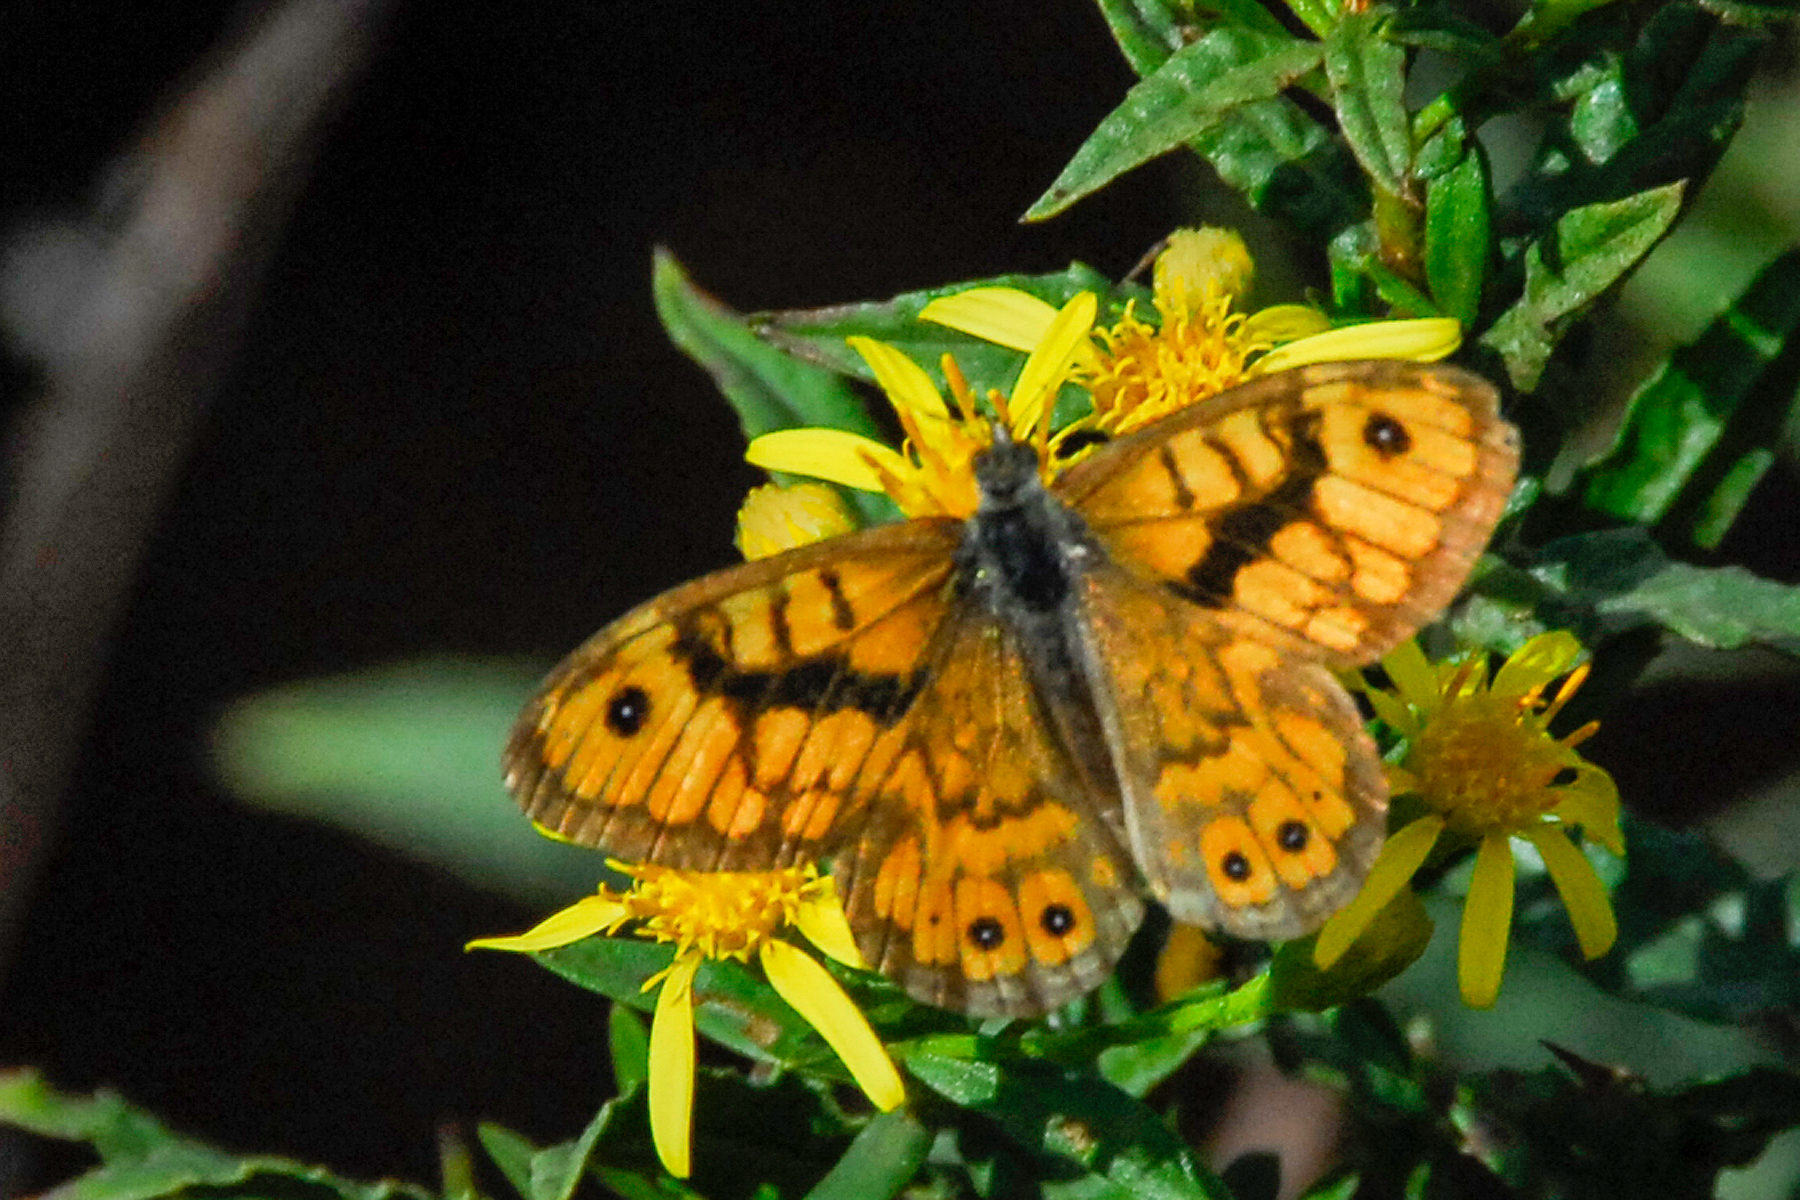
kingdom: Animalia
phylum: Arthropoda
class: Insecta
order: Lepidoptera
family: Nymphalidae
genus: Pararge
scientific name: Pararge Lasiommata megera
